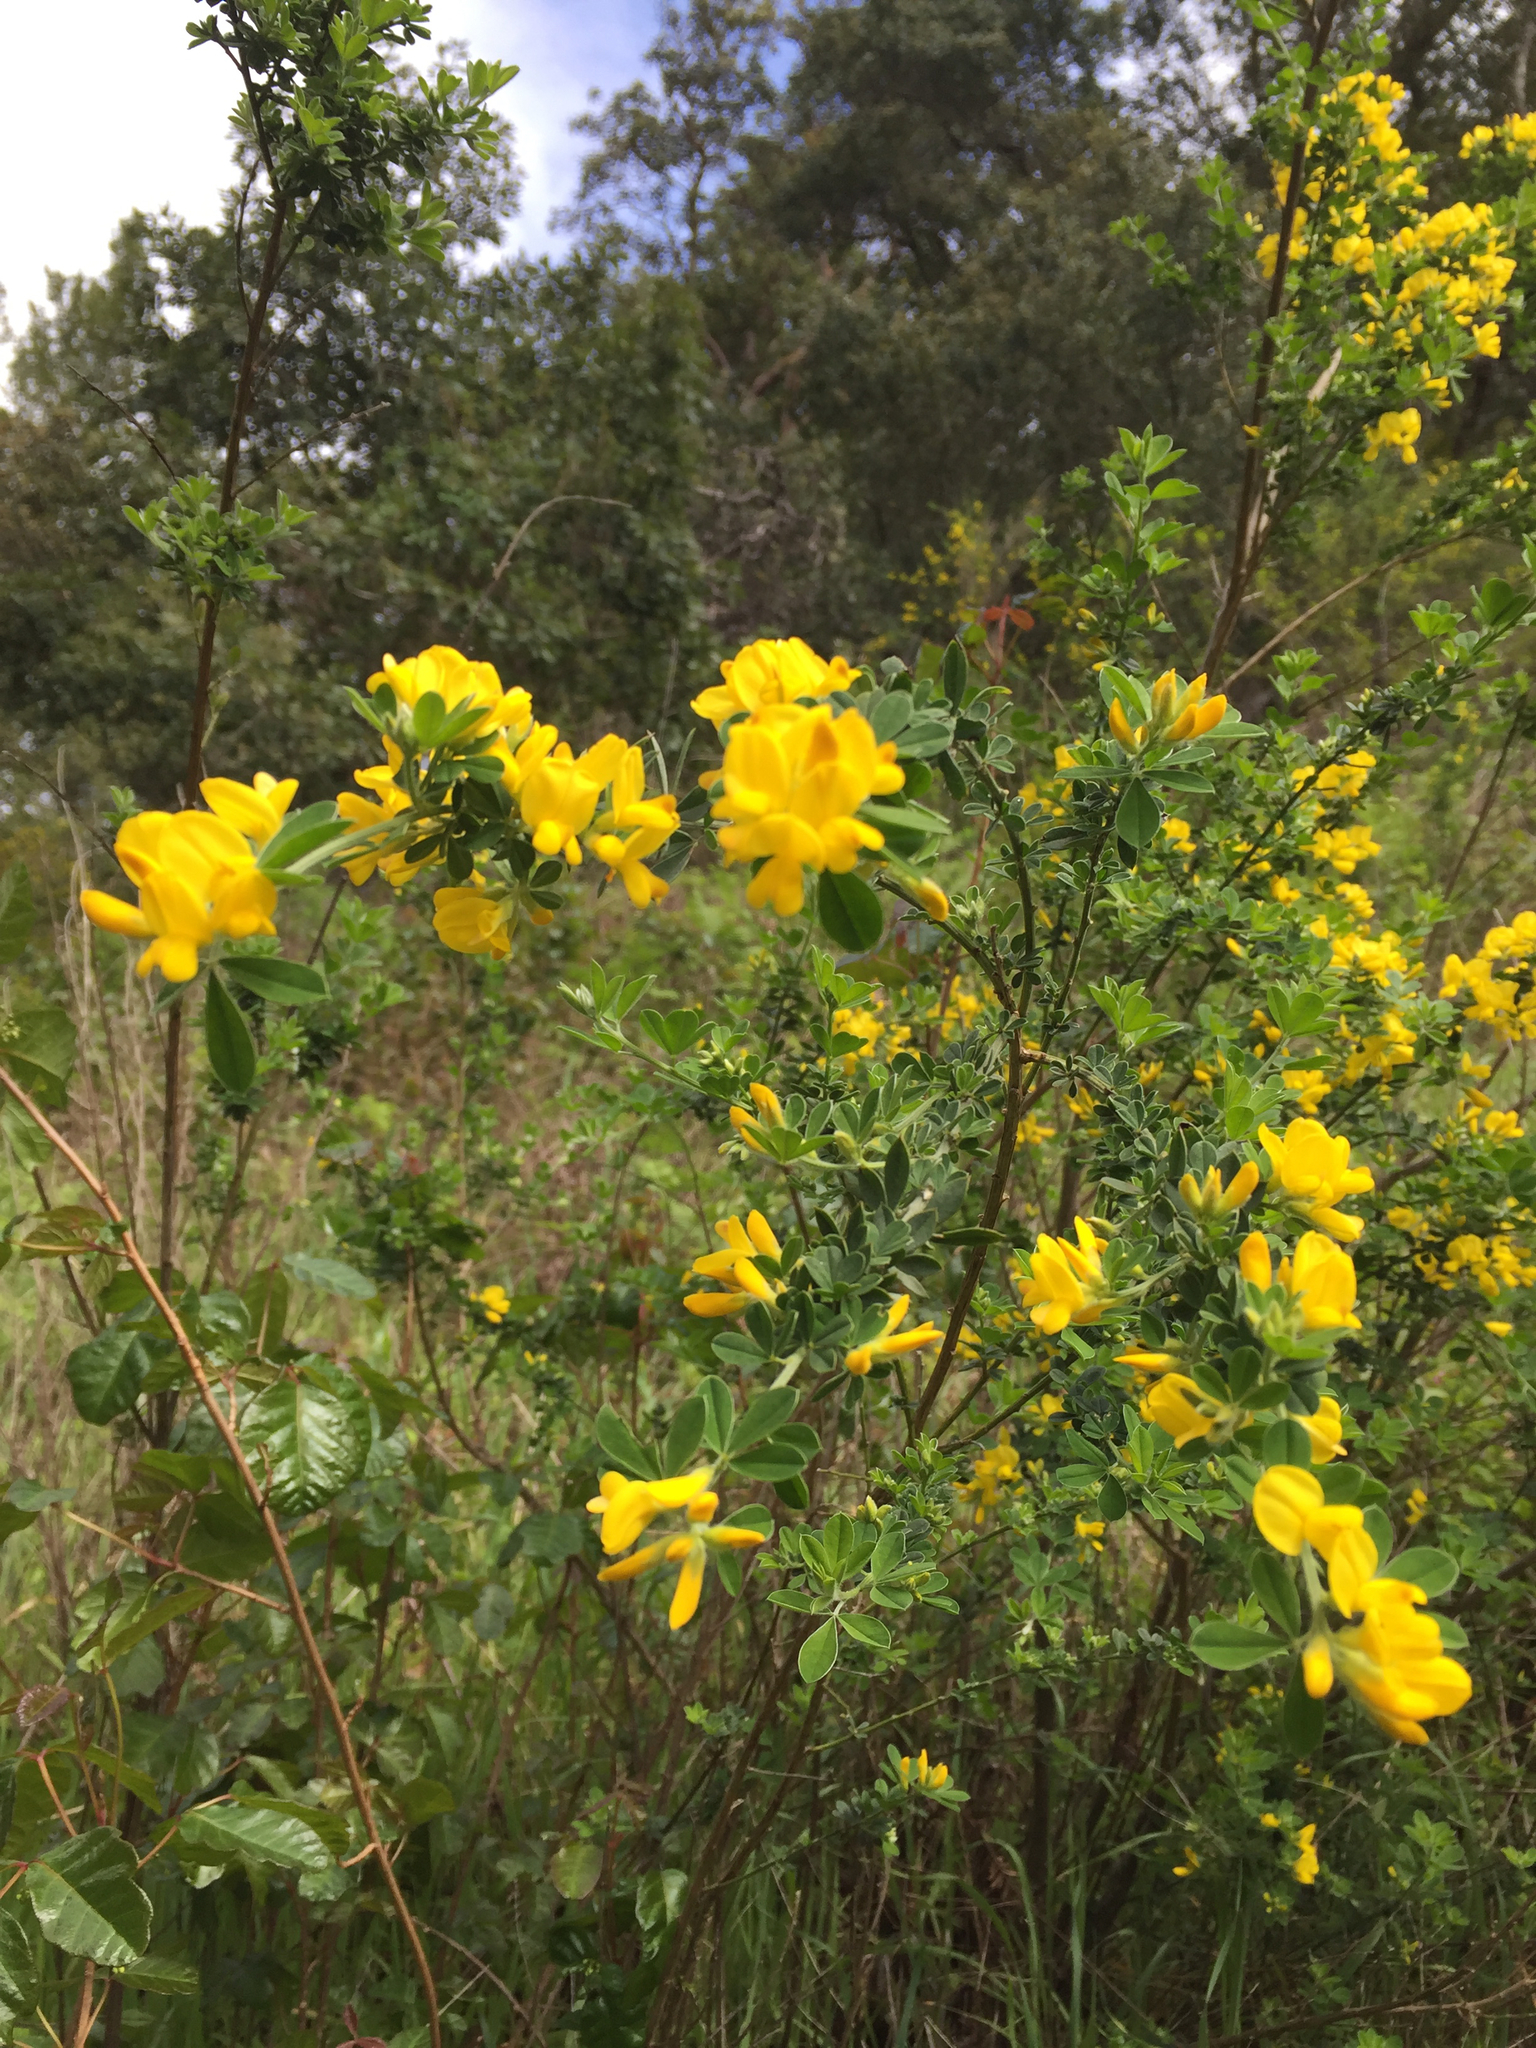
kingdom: Plantae
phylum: Tracheophyta
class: Magnoliopsida
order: Fabales
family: Fabaceae
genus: Genista
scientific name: Genista monspessulana
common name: Montpellier broom
